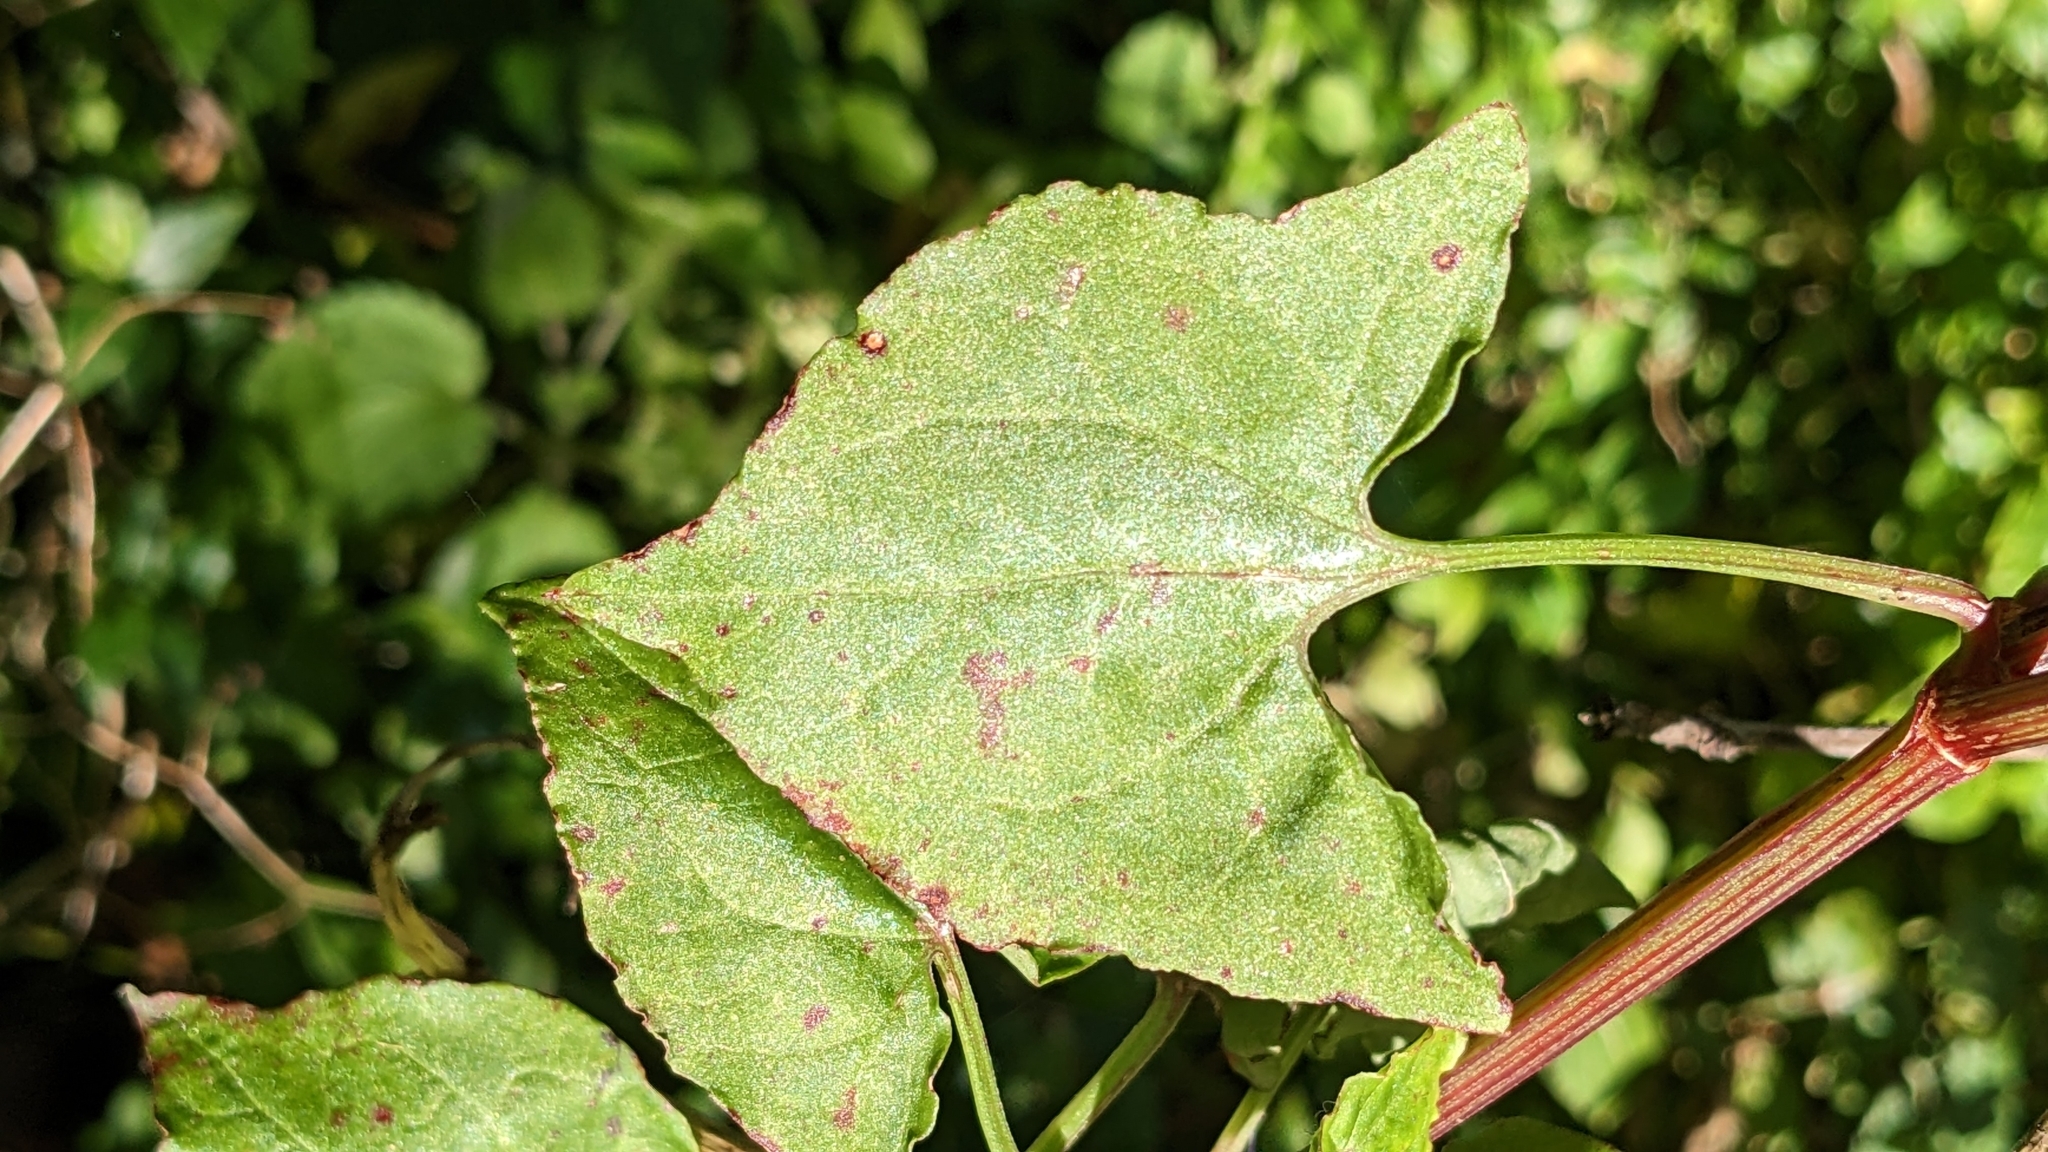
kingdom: Plantae
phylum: Tracheophyta
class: Magnoliopsida
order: Caryophyllales
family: Polygonaceae
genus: Rumex
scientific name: Rumex sagittatus
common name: Climbing dock
